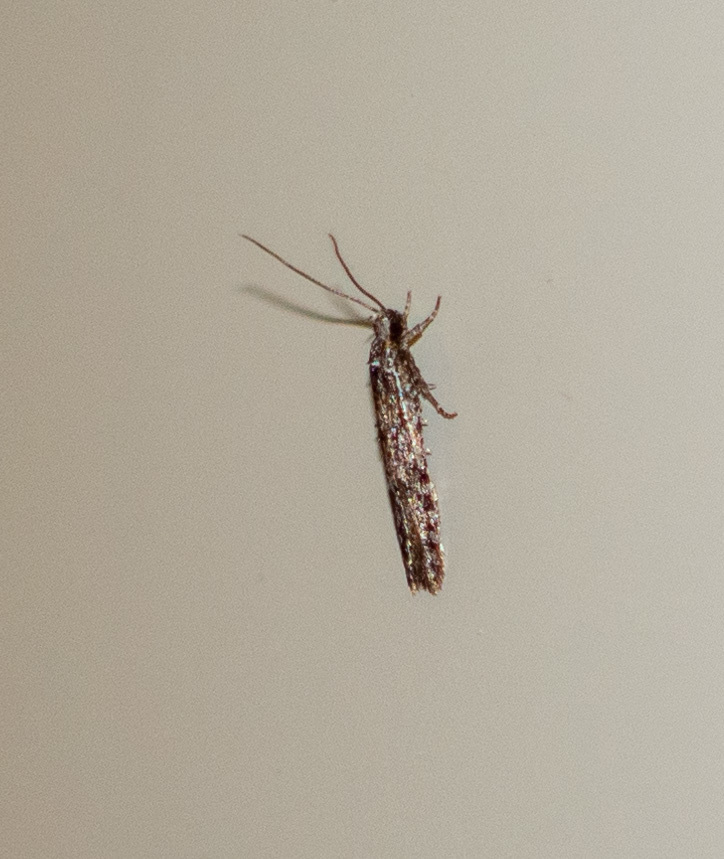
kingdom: Animalia
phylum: Arthropoda
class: Insecta
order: Lepidoptera
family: Depressariidae
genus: Exaeretia
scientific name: Exaeretia ciniflonella
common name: Scotch flat-body
